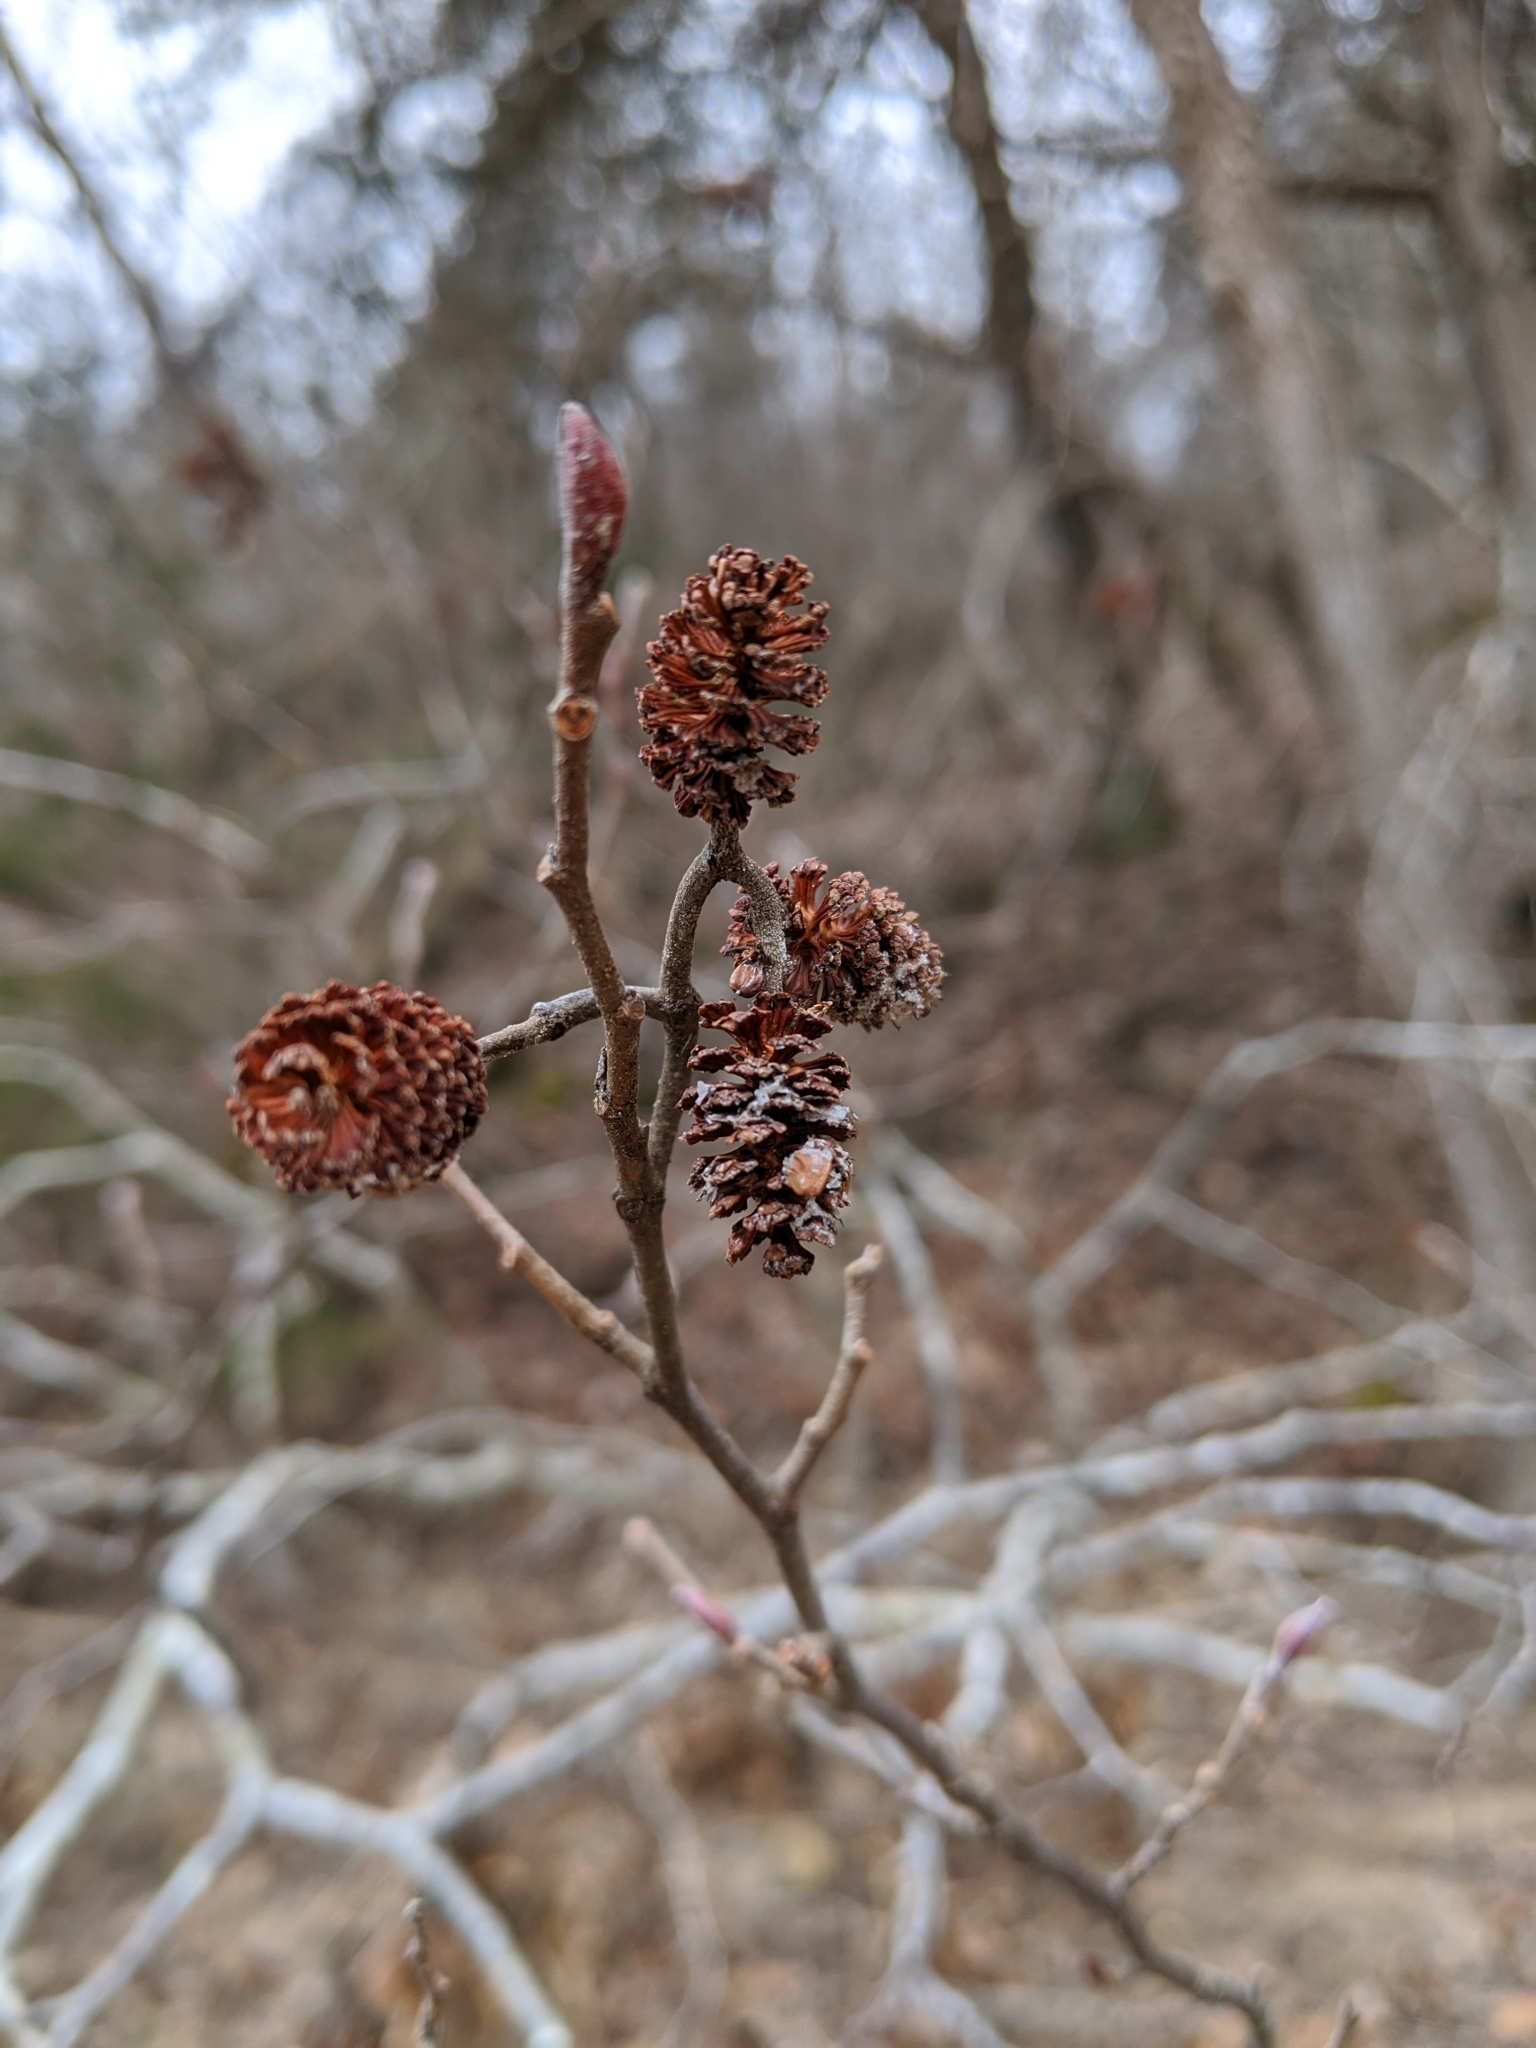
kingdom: Plantae
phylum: Tracheophyta
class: Magnoliopsida
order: Fagales
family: Betulaceae
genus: Alnus
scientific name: Alnus serrulata
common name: Hazel alder
